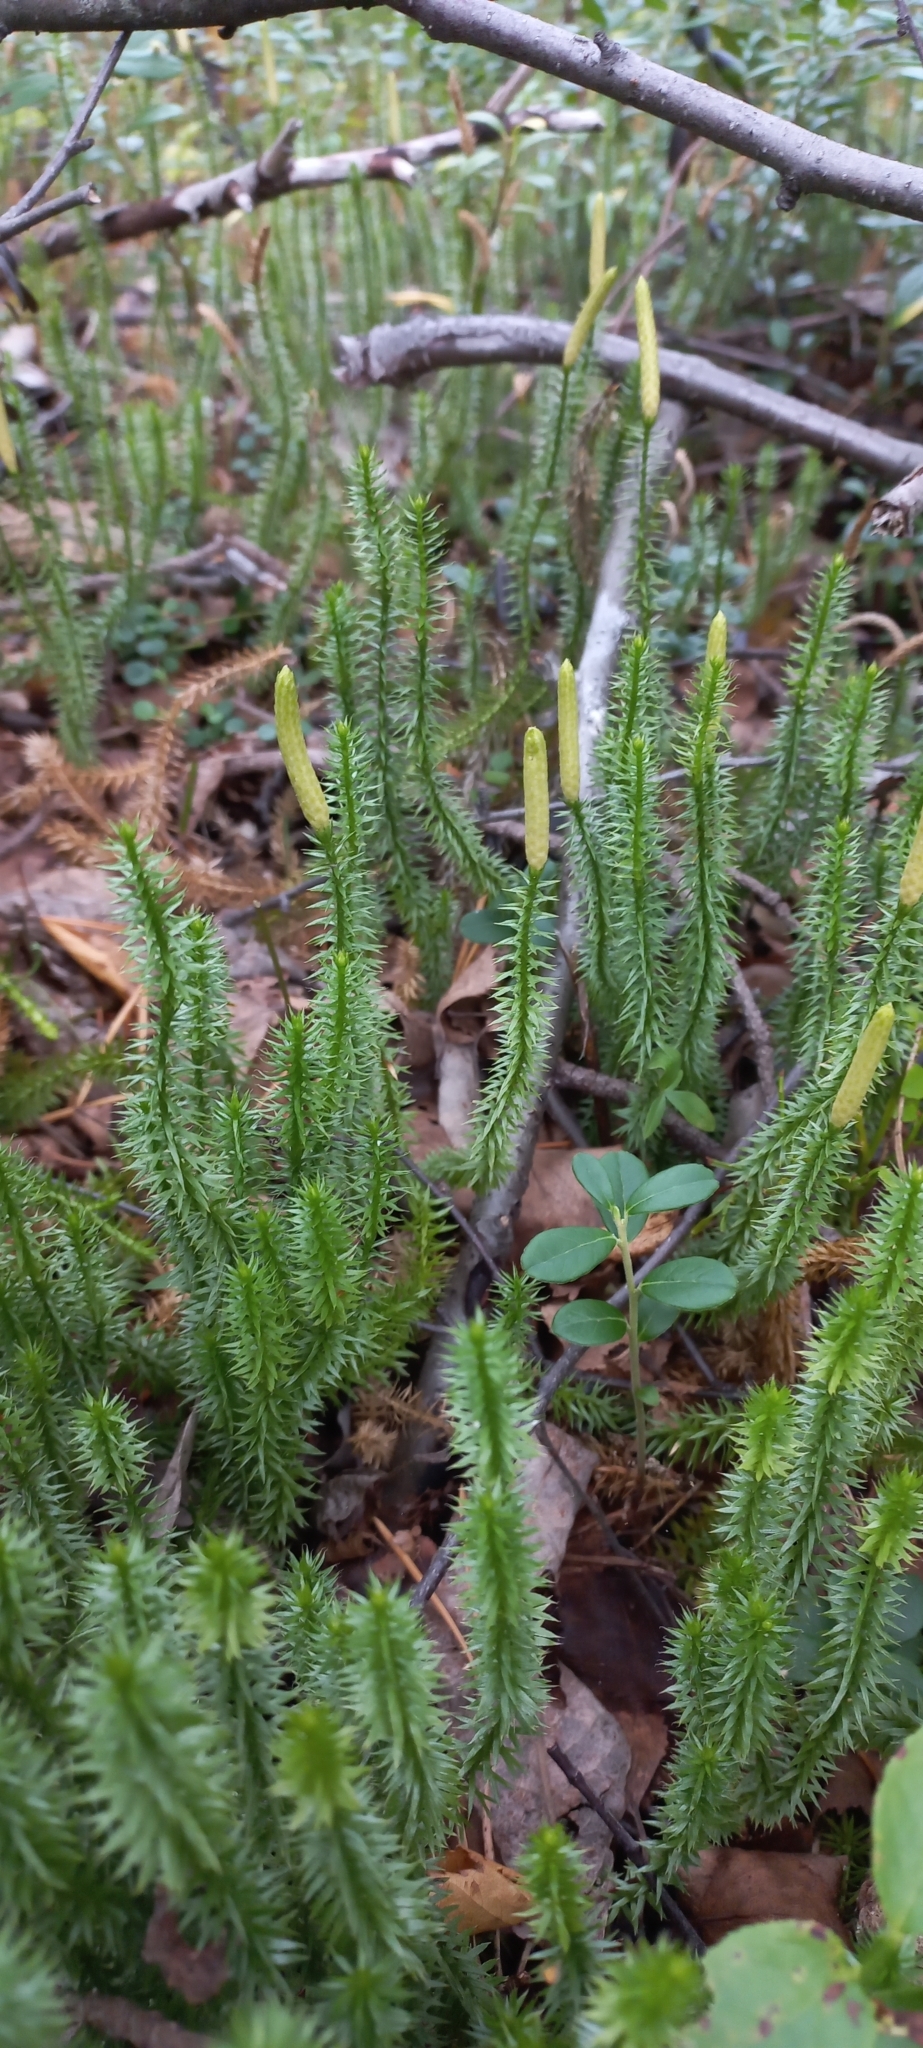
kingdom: Plantae
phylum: Tracheophyta
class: Lycopodiopsida
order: Lycopodiales
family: Lycopodiaceae
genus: Spinulum
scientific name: Spinulum annotinum
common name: Interrupted club-moss
